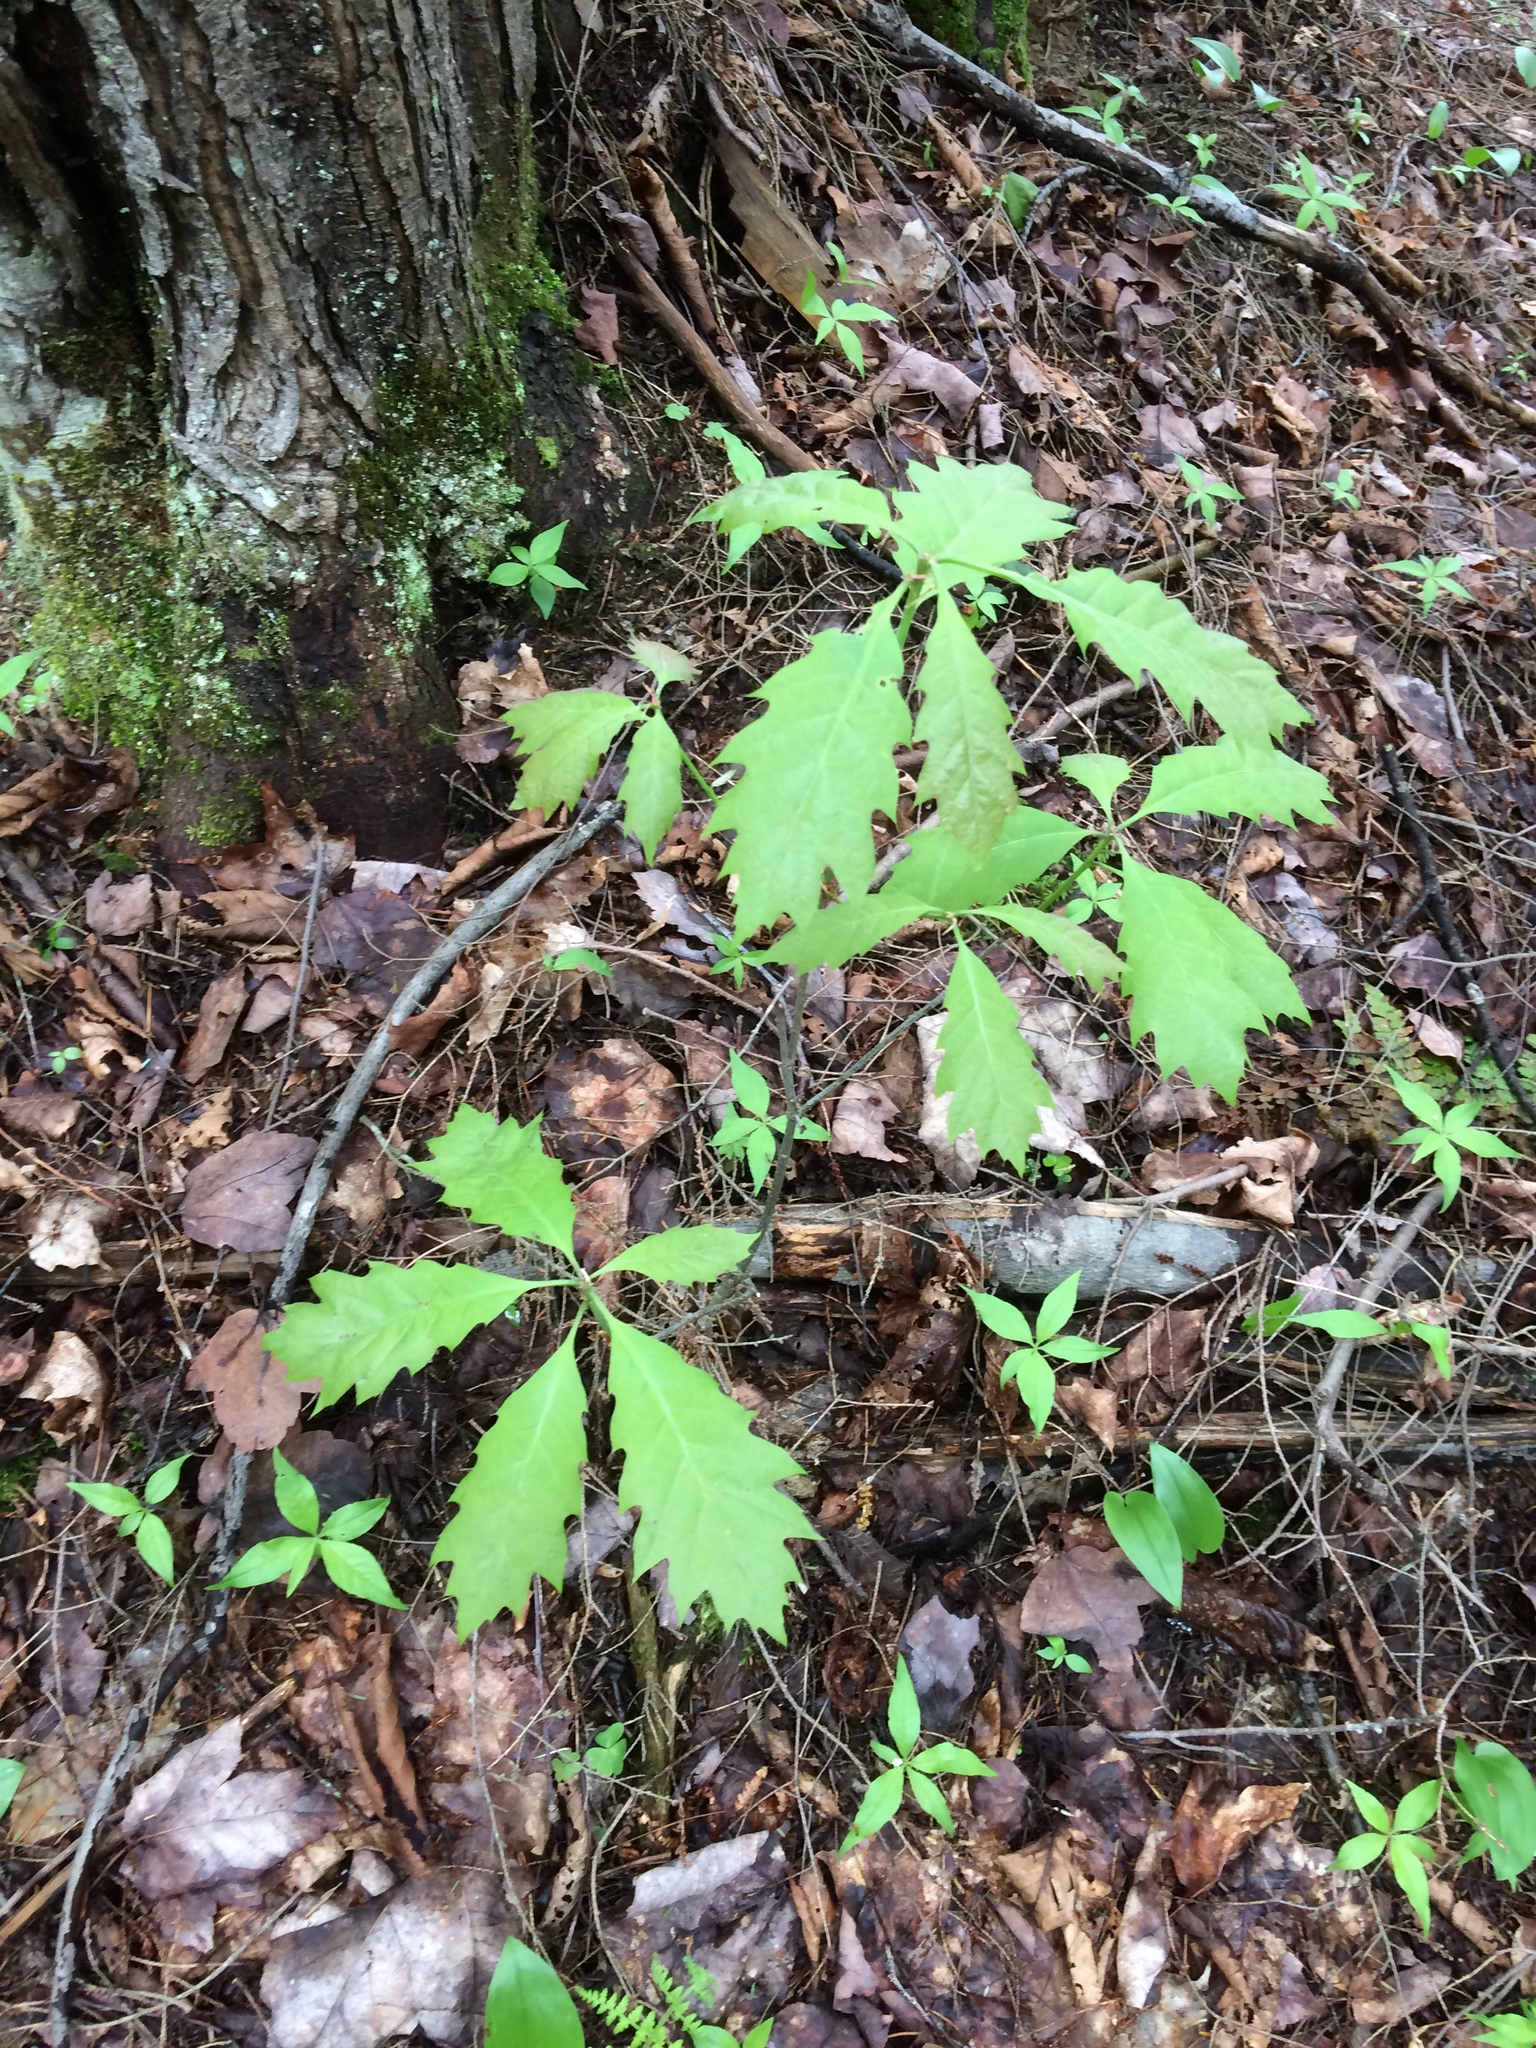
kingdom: Plantae
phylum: Tracheophyta
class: Magnoliopsida
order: Fagales
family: Fagaceae
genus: Quercus
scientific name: Quercus rubra
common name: Red oak
